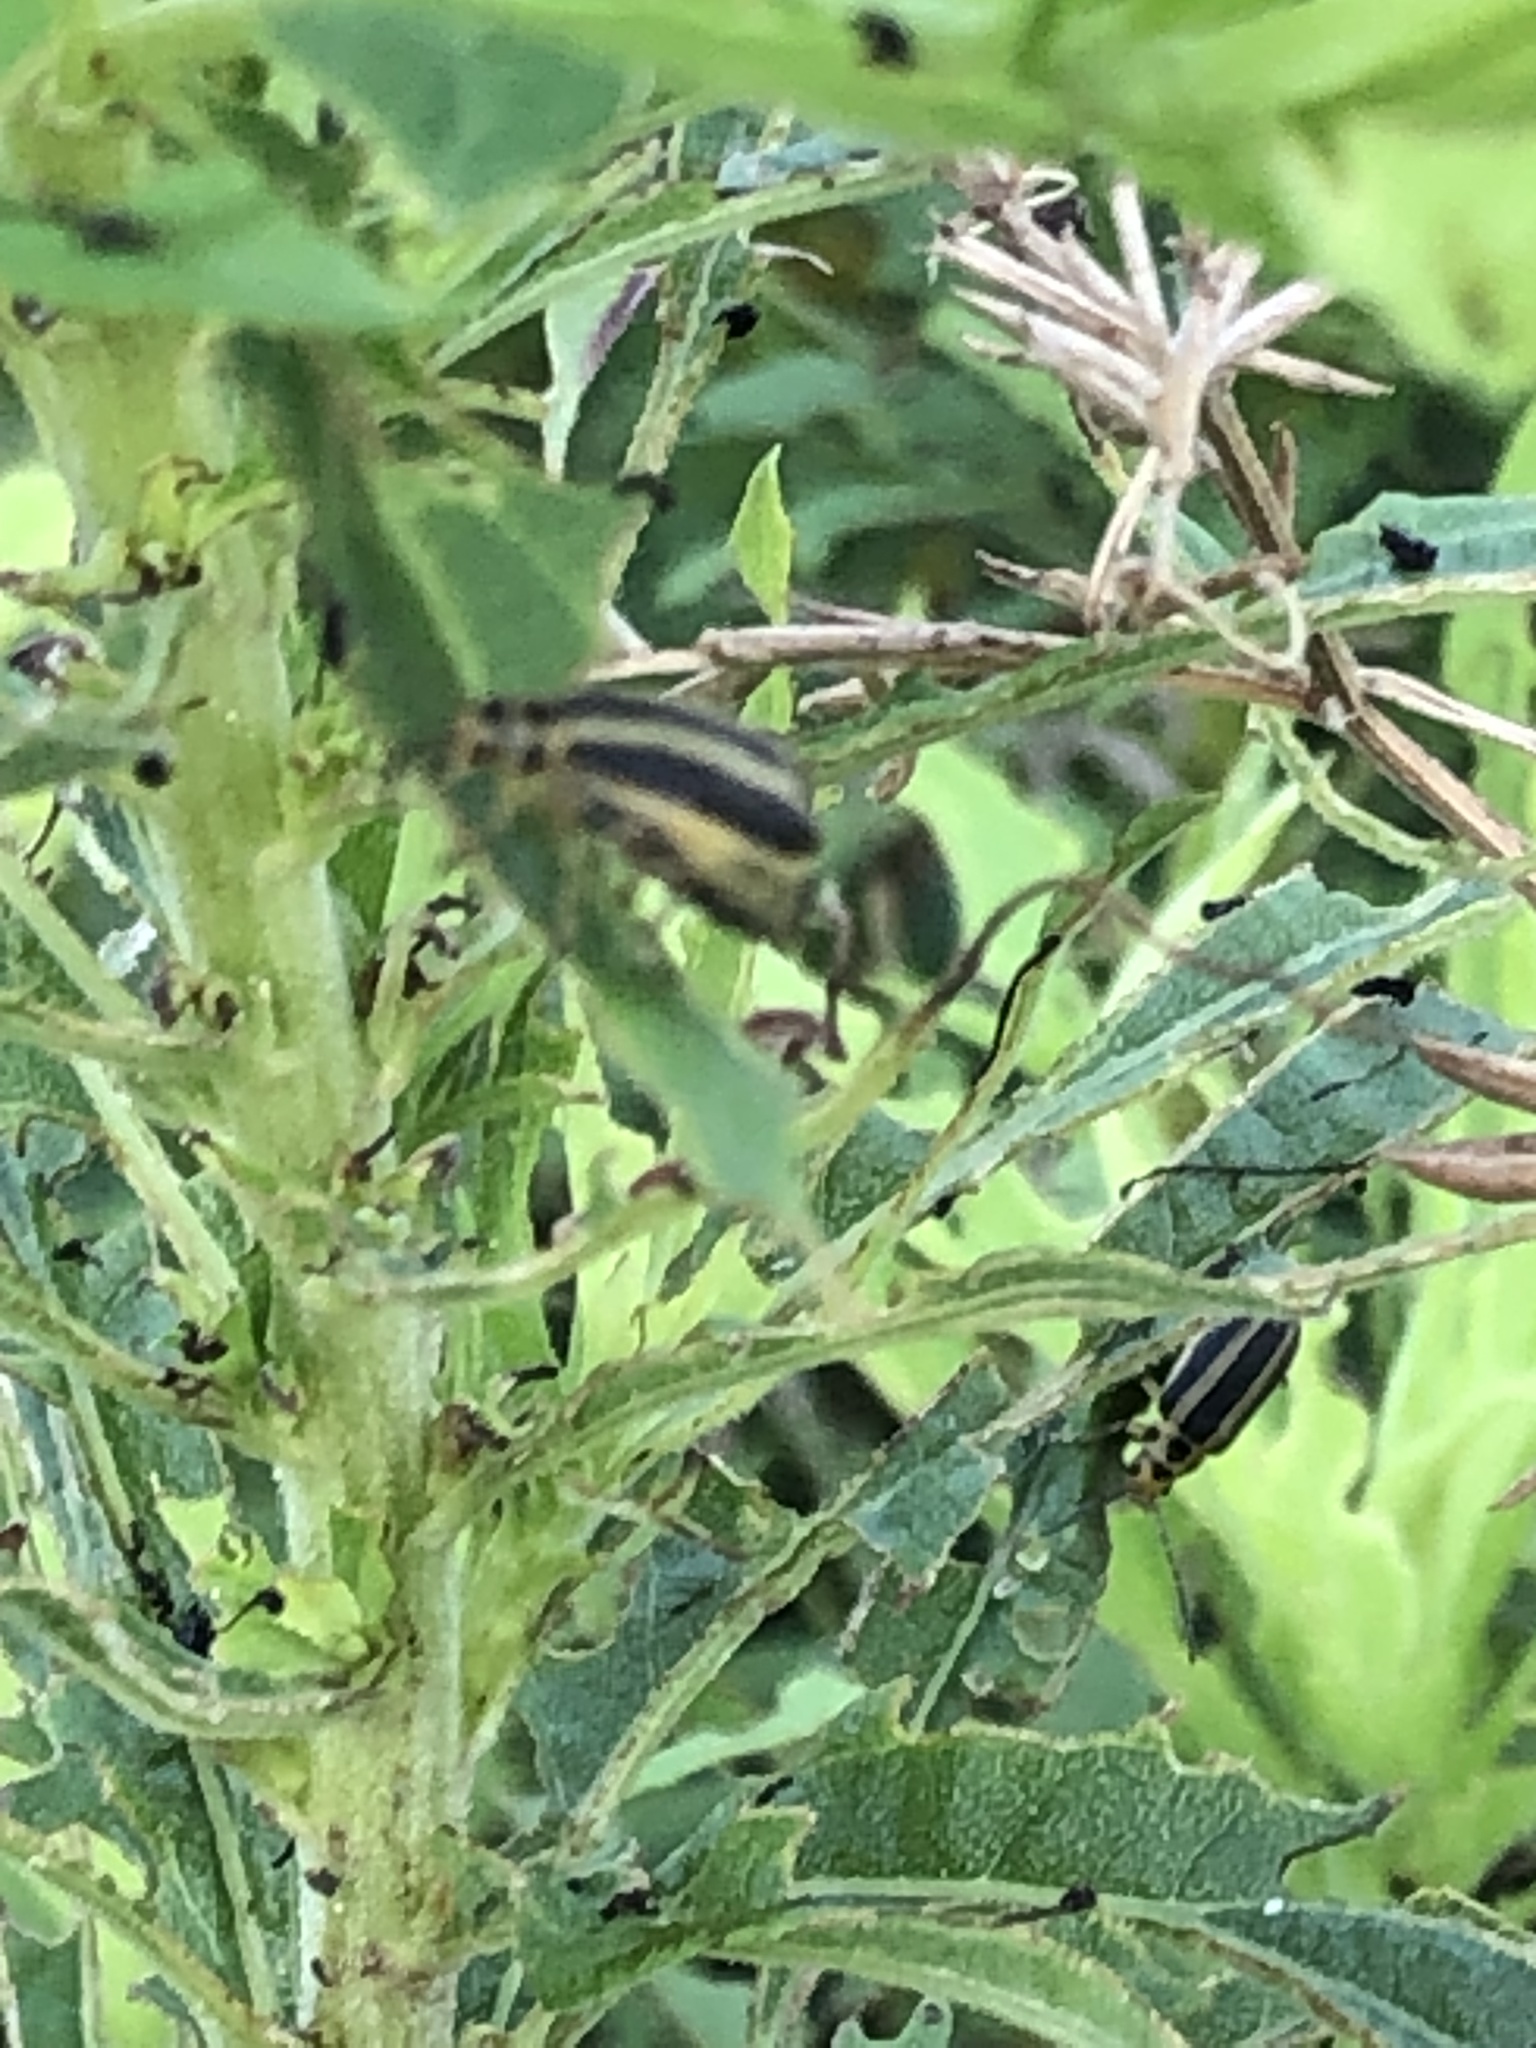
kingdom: Animalia
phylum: Arthropoda
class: Insecta
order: Coleoptera
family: Chrysomelidae
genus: Trirhabda
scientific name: Trirhabda canadensis
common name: Goldenrod leaf beetle
